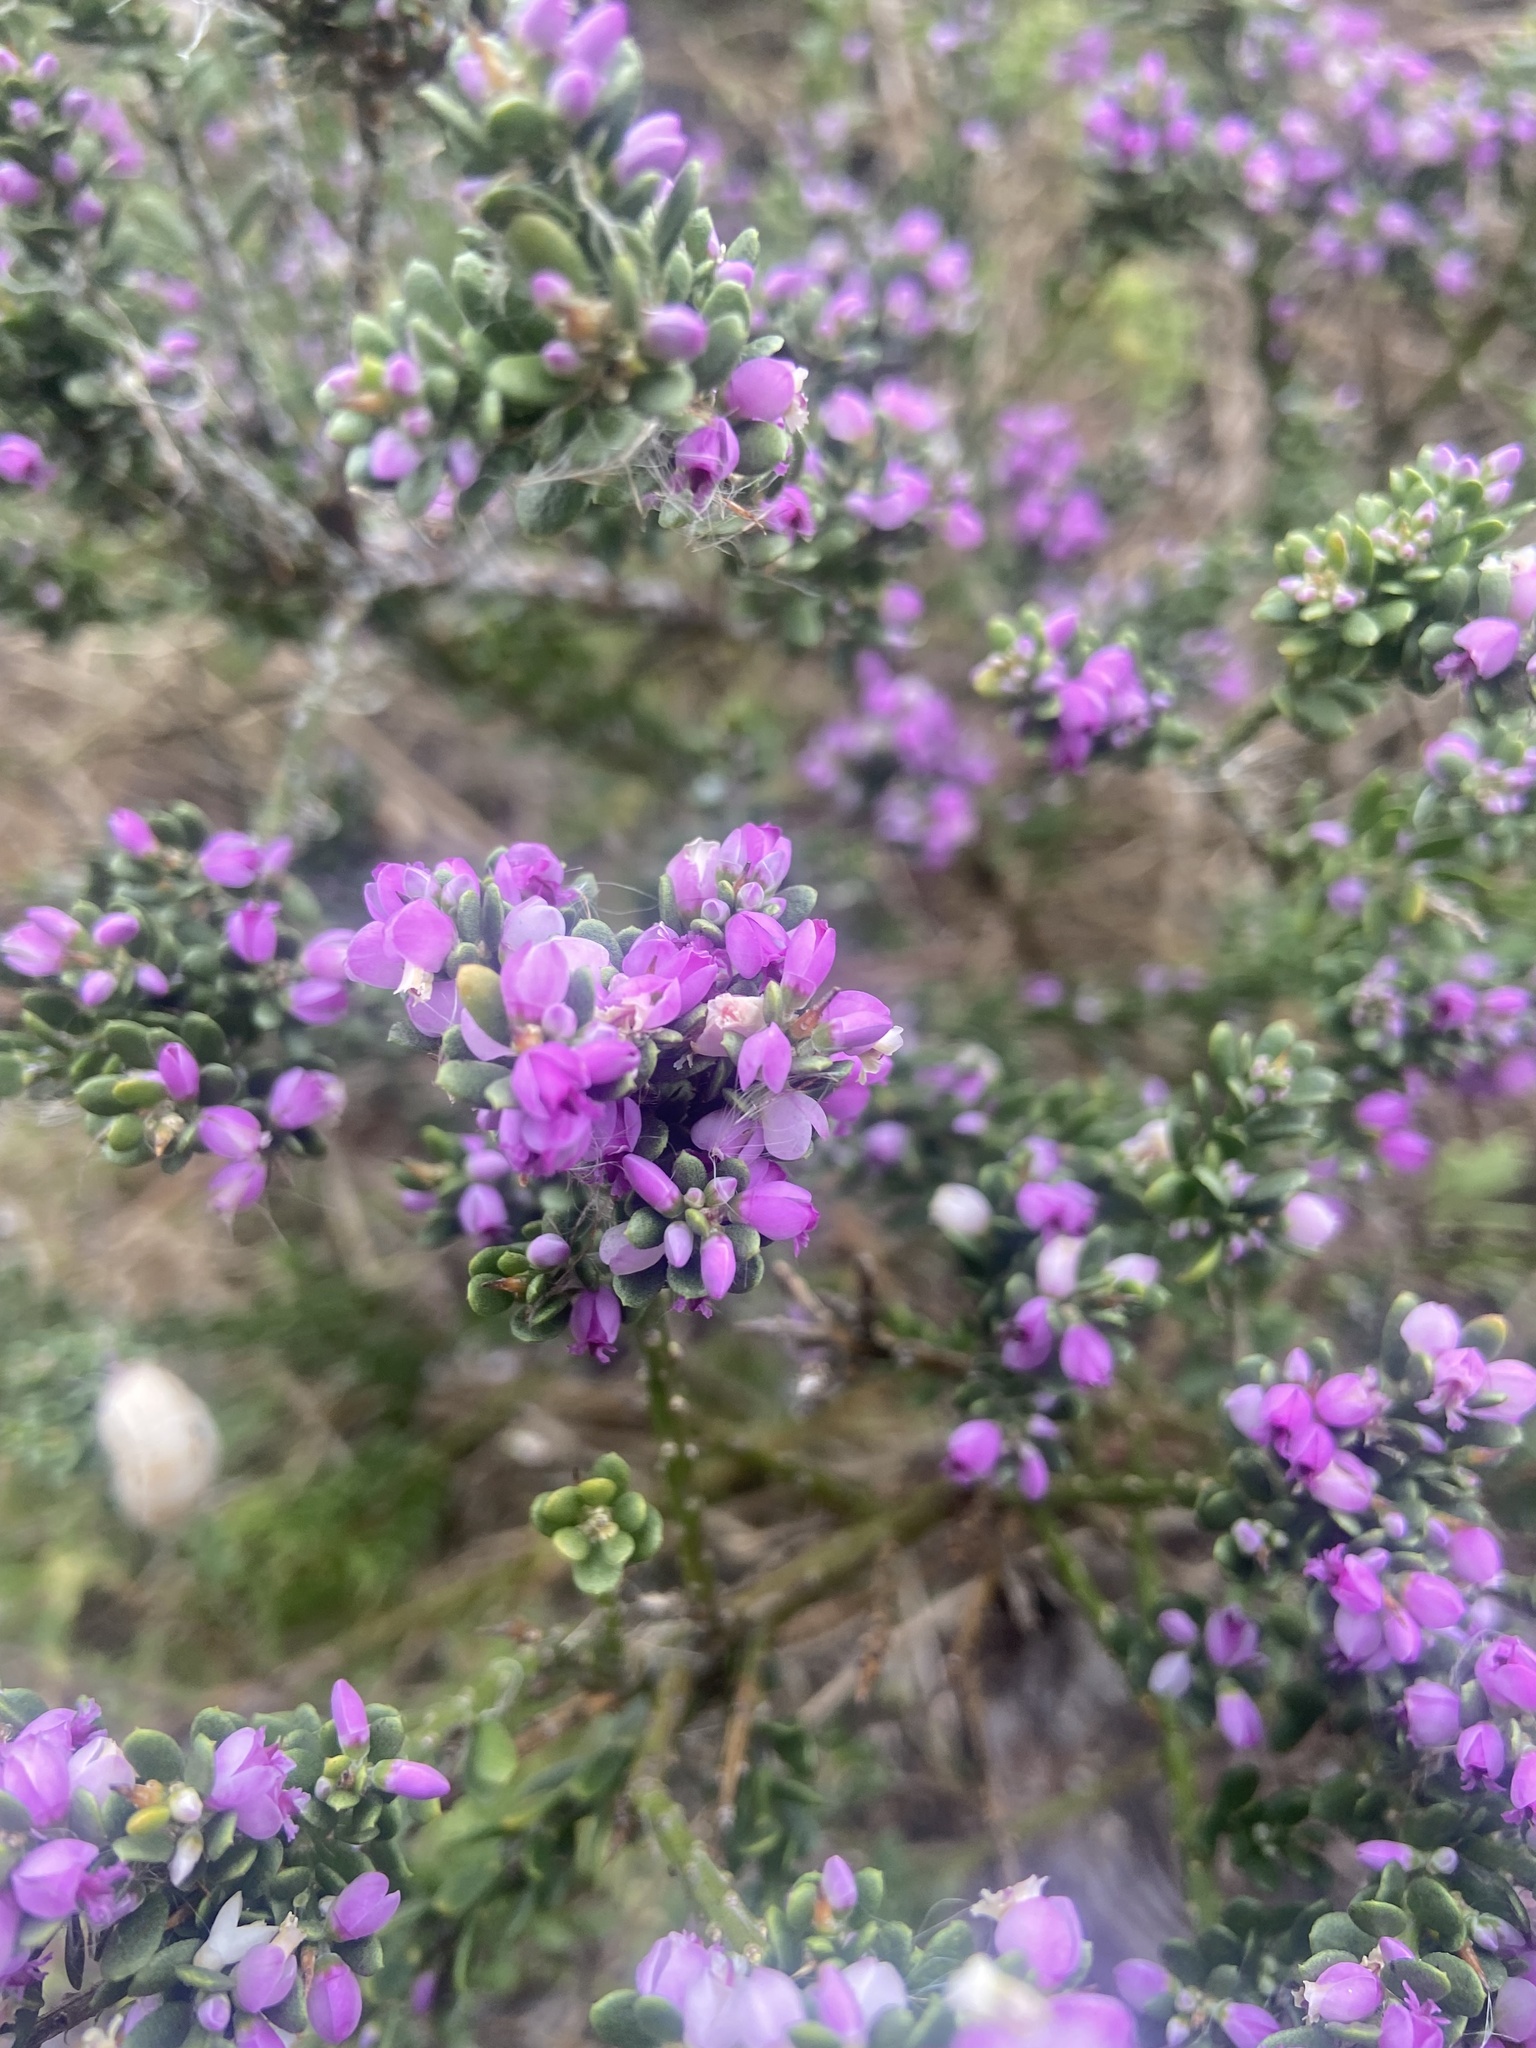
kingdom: Plantae
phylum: Tracheophyta
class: Magnoliopsida
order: Fabales
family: Polygalaceae
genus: Muraltia
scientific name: Muraltia spinosa
